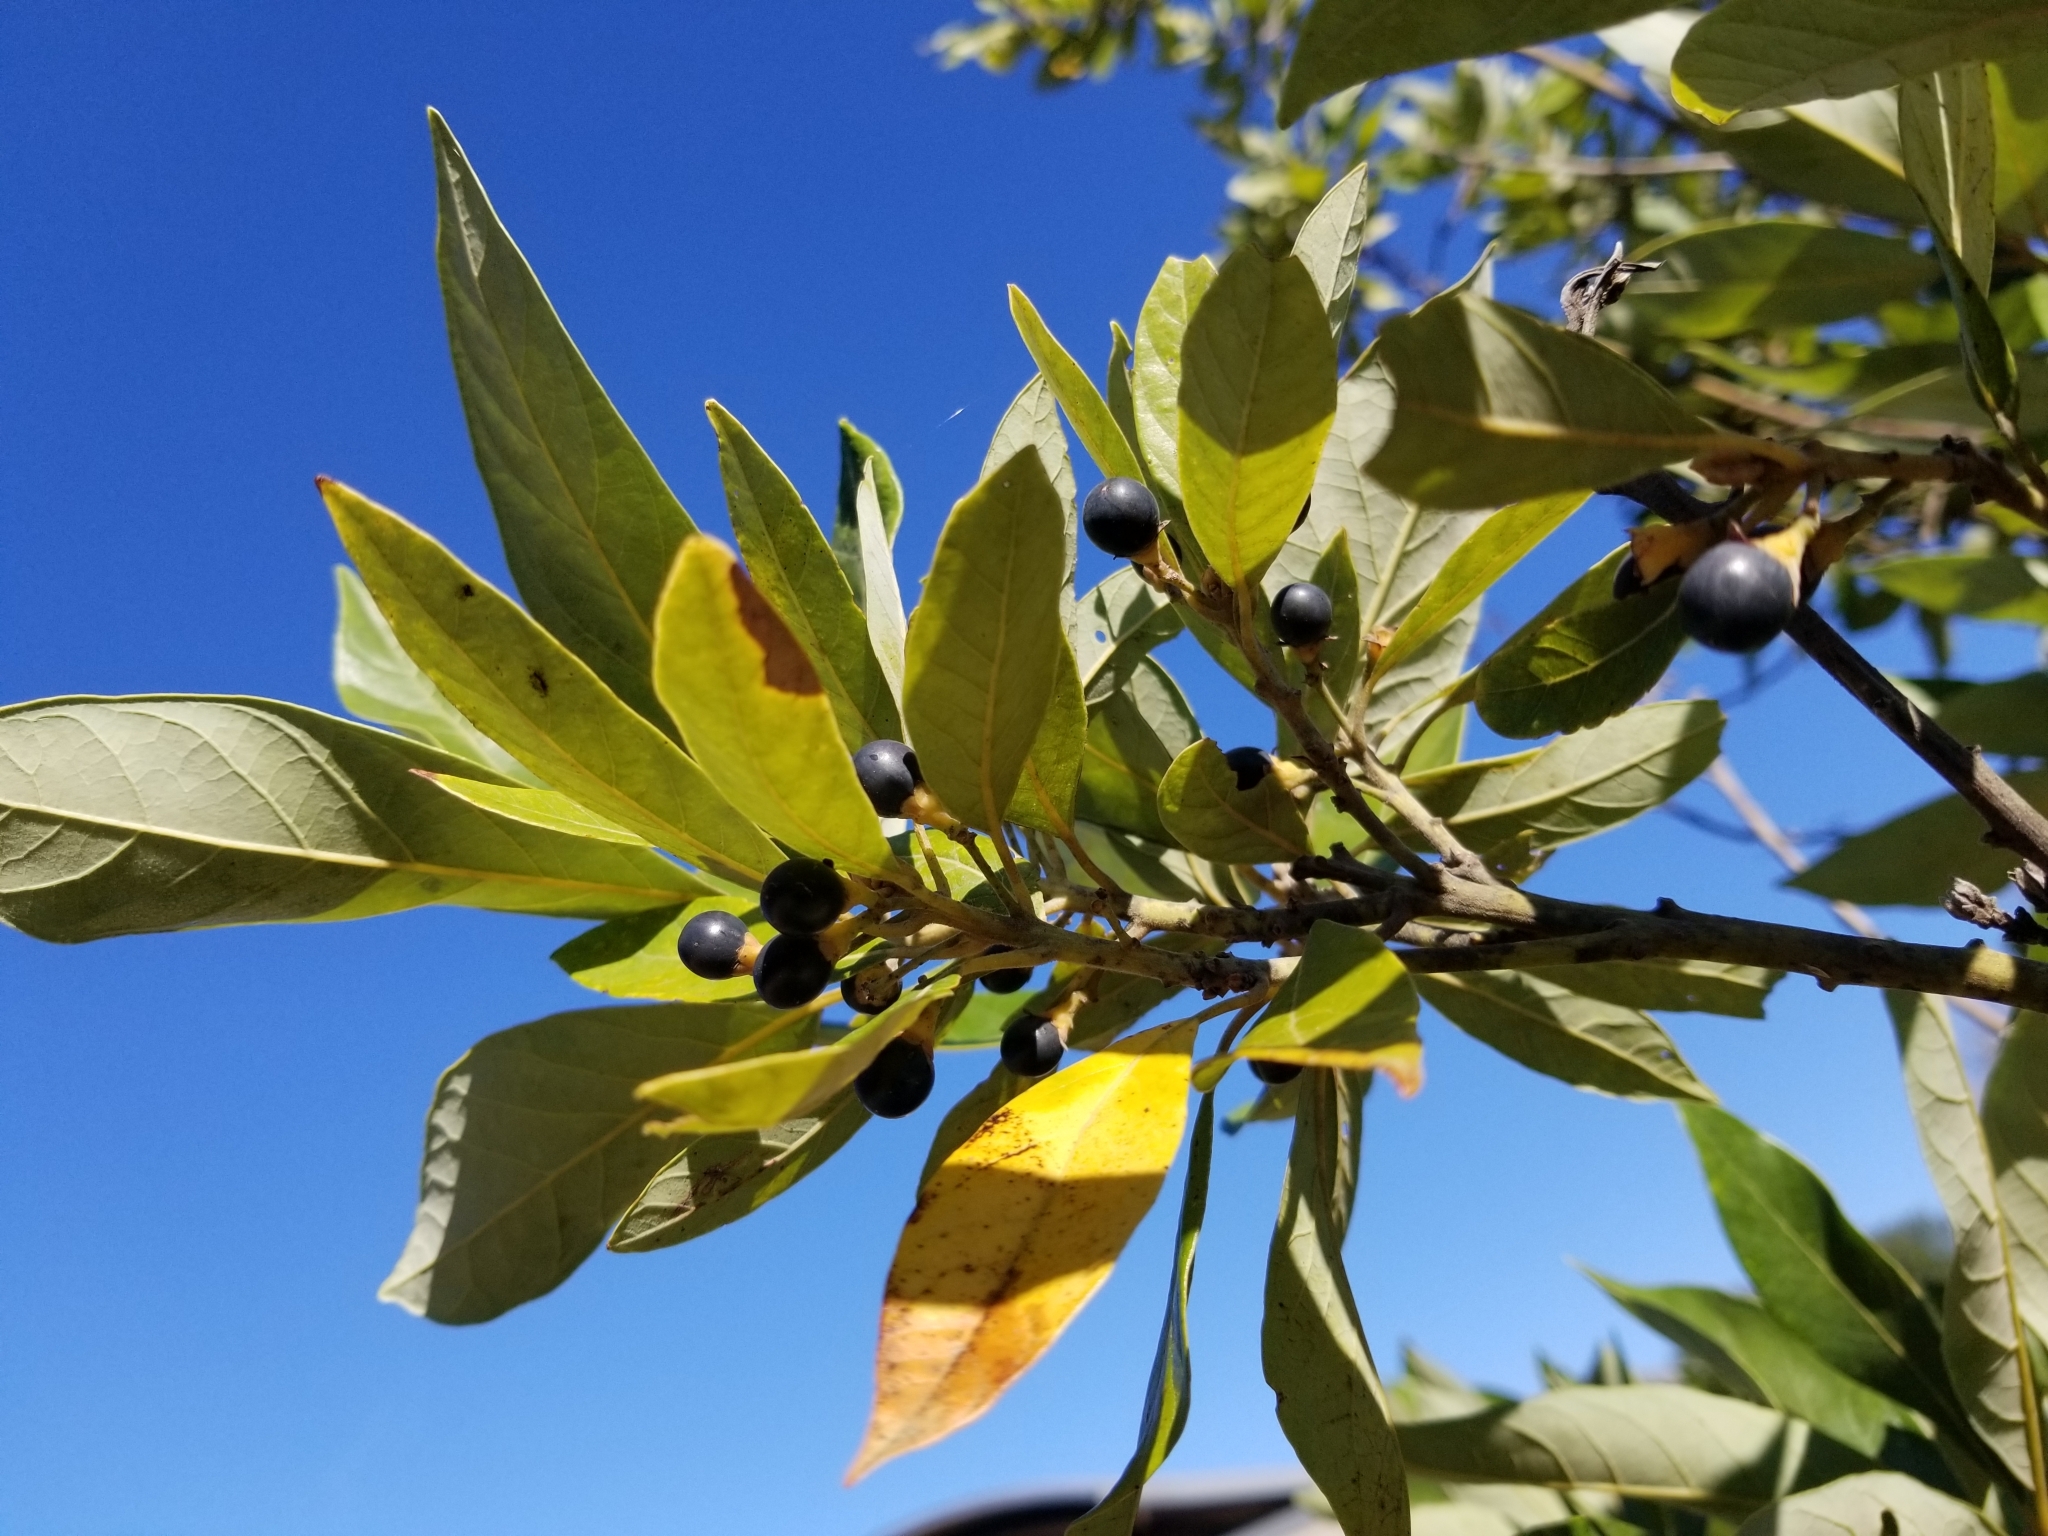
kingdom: Plantae
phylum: Tracheophyta
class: Magnoliopsida
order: Laurales
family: Lauraceae
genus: Persea
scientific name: Persea borbonia
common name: Redbay
